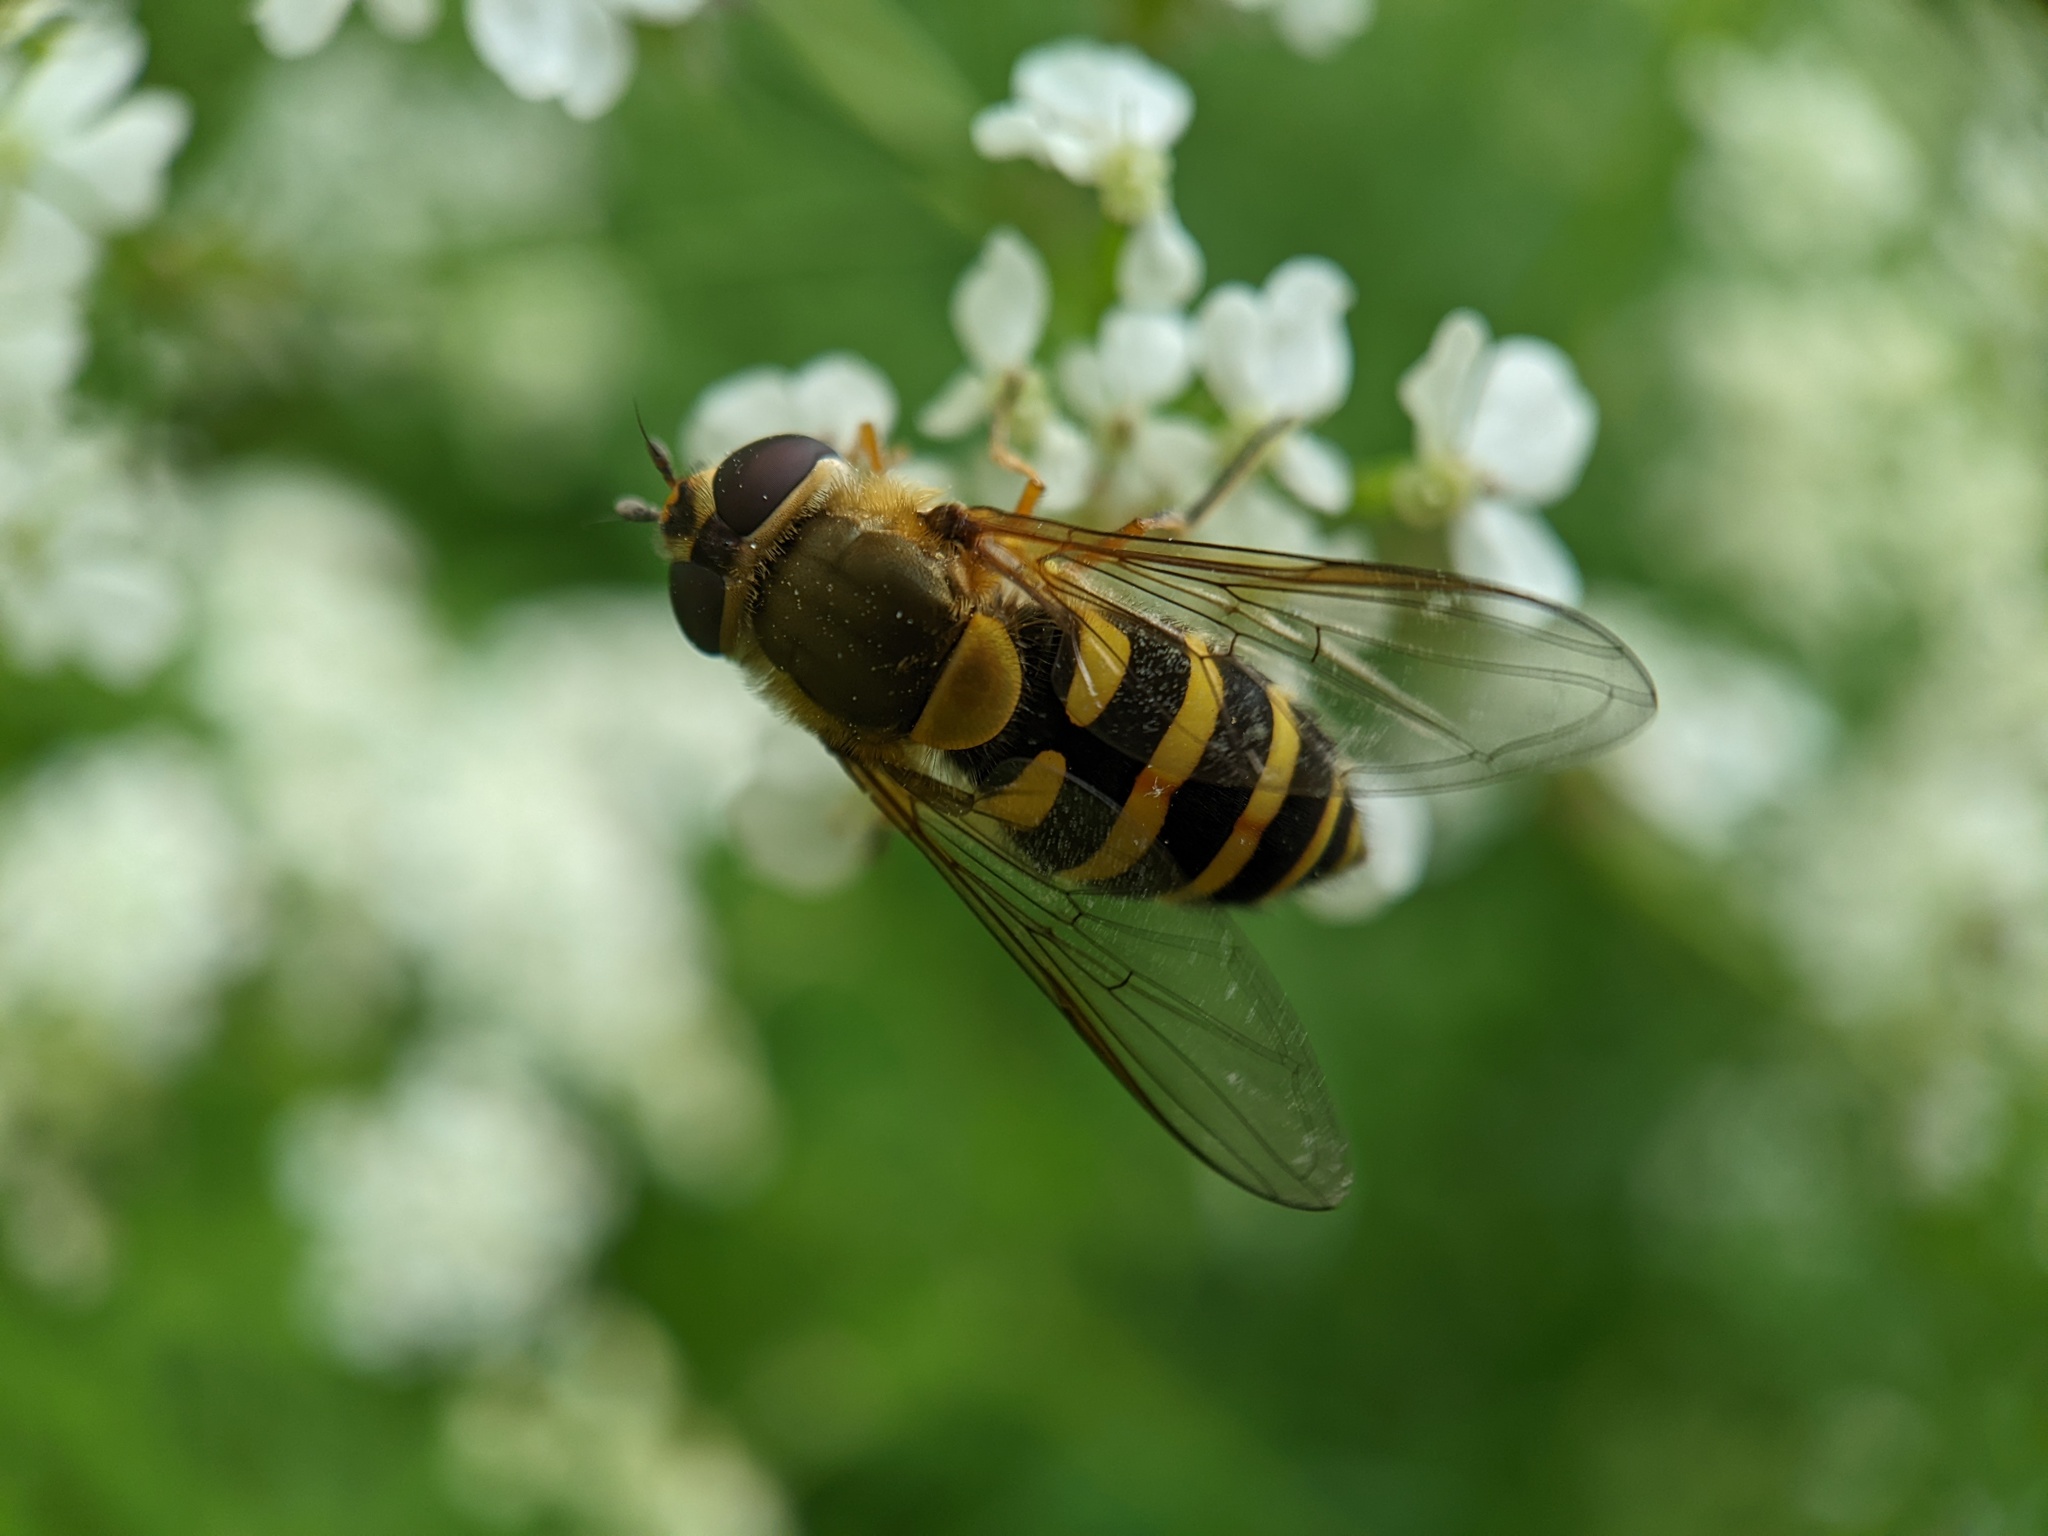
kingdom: Animalia
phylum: Arthropoda
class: Insecta
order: Diptera
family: Syrphidae
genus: Syrphus
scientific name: Syrphus ribesii
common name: Common flower fly
